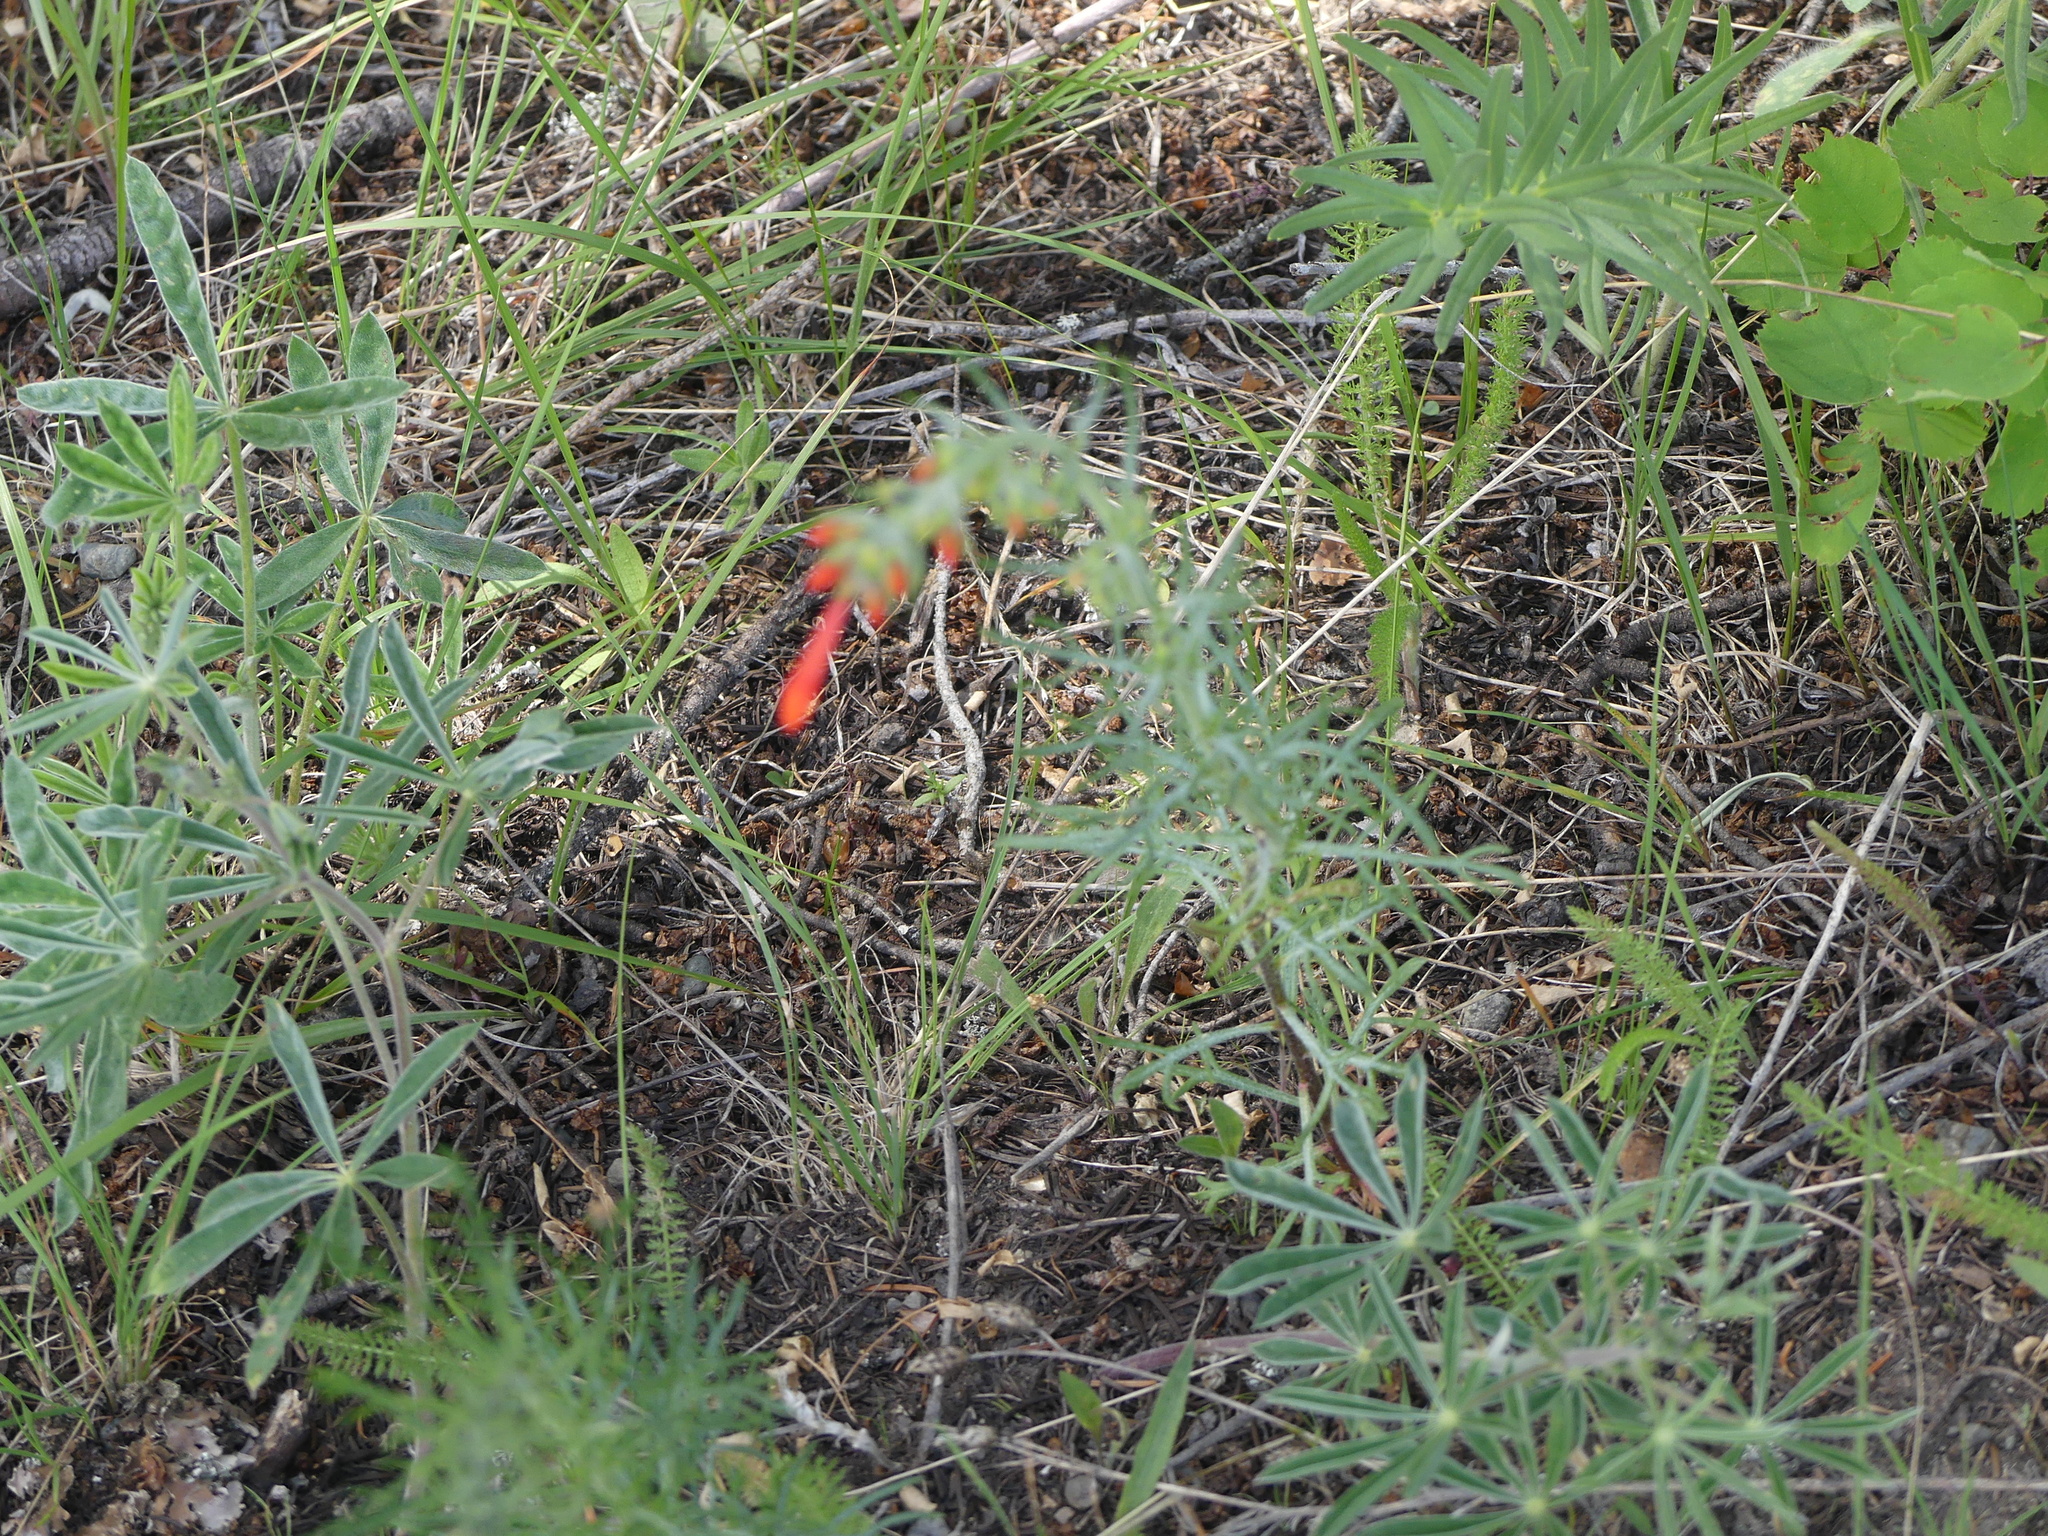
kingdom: Plantae
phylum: Tracheophyta
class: Magnoliopsida
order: Ericales
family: Polemoniaceae
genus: Ipomopsis
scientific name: Ipomopsis aggregata
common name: Scarlet gilia
